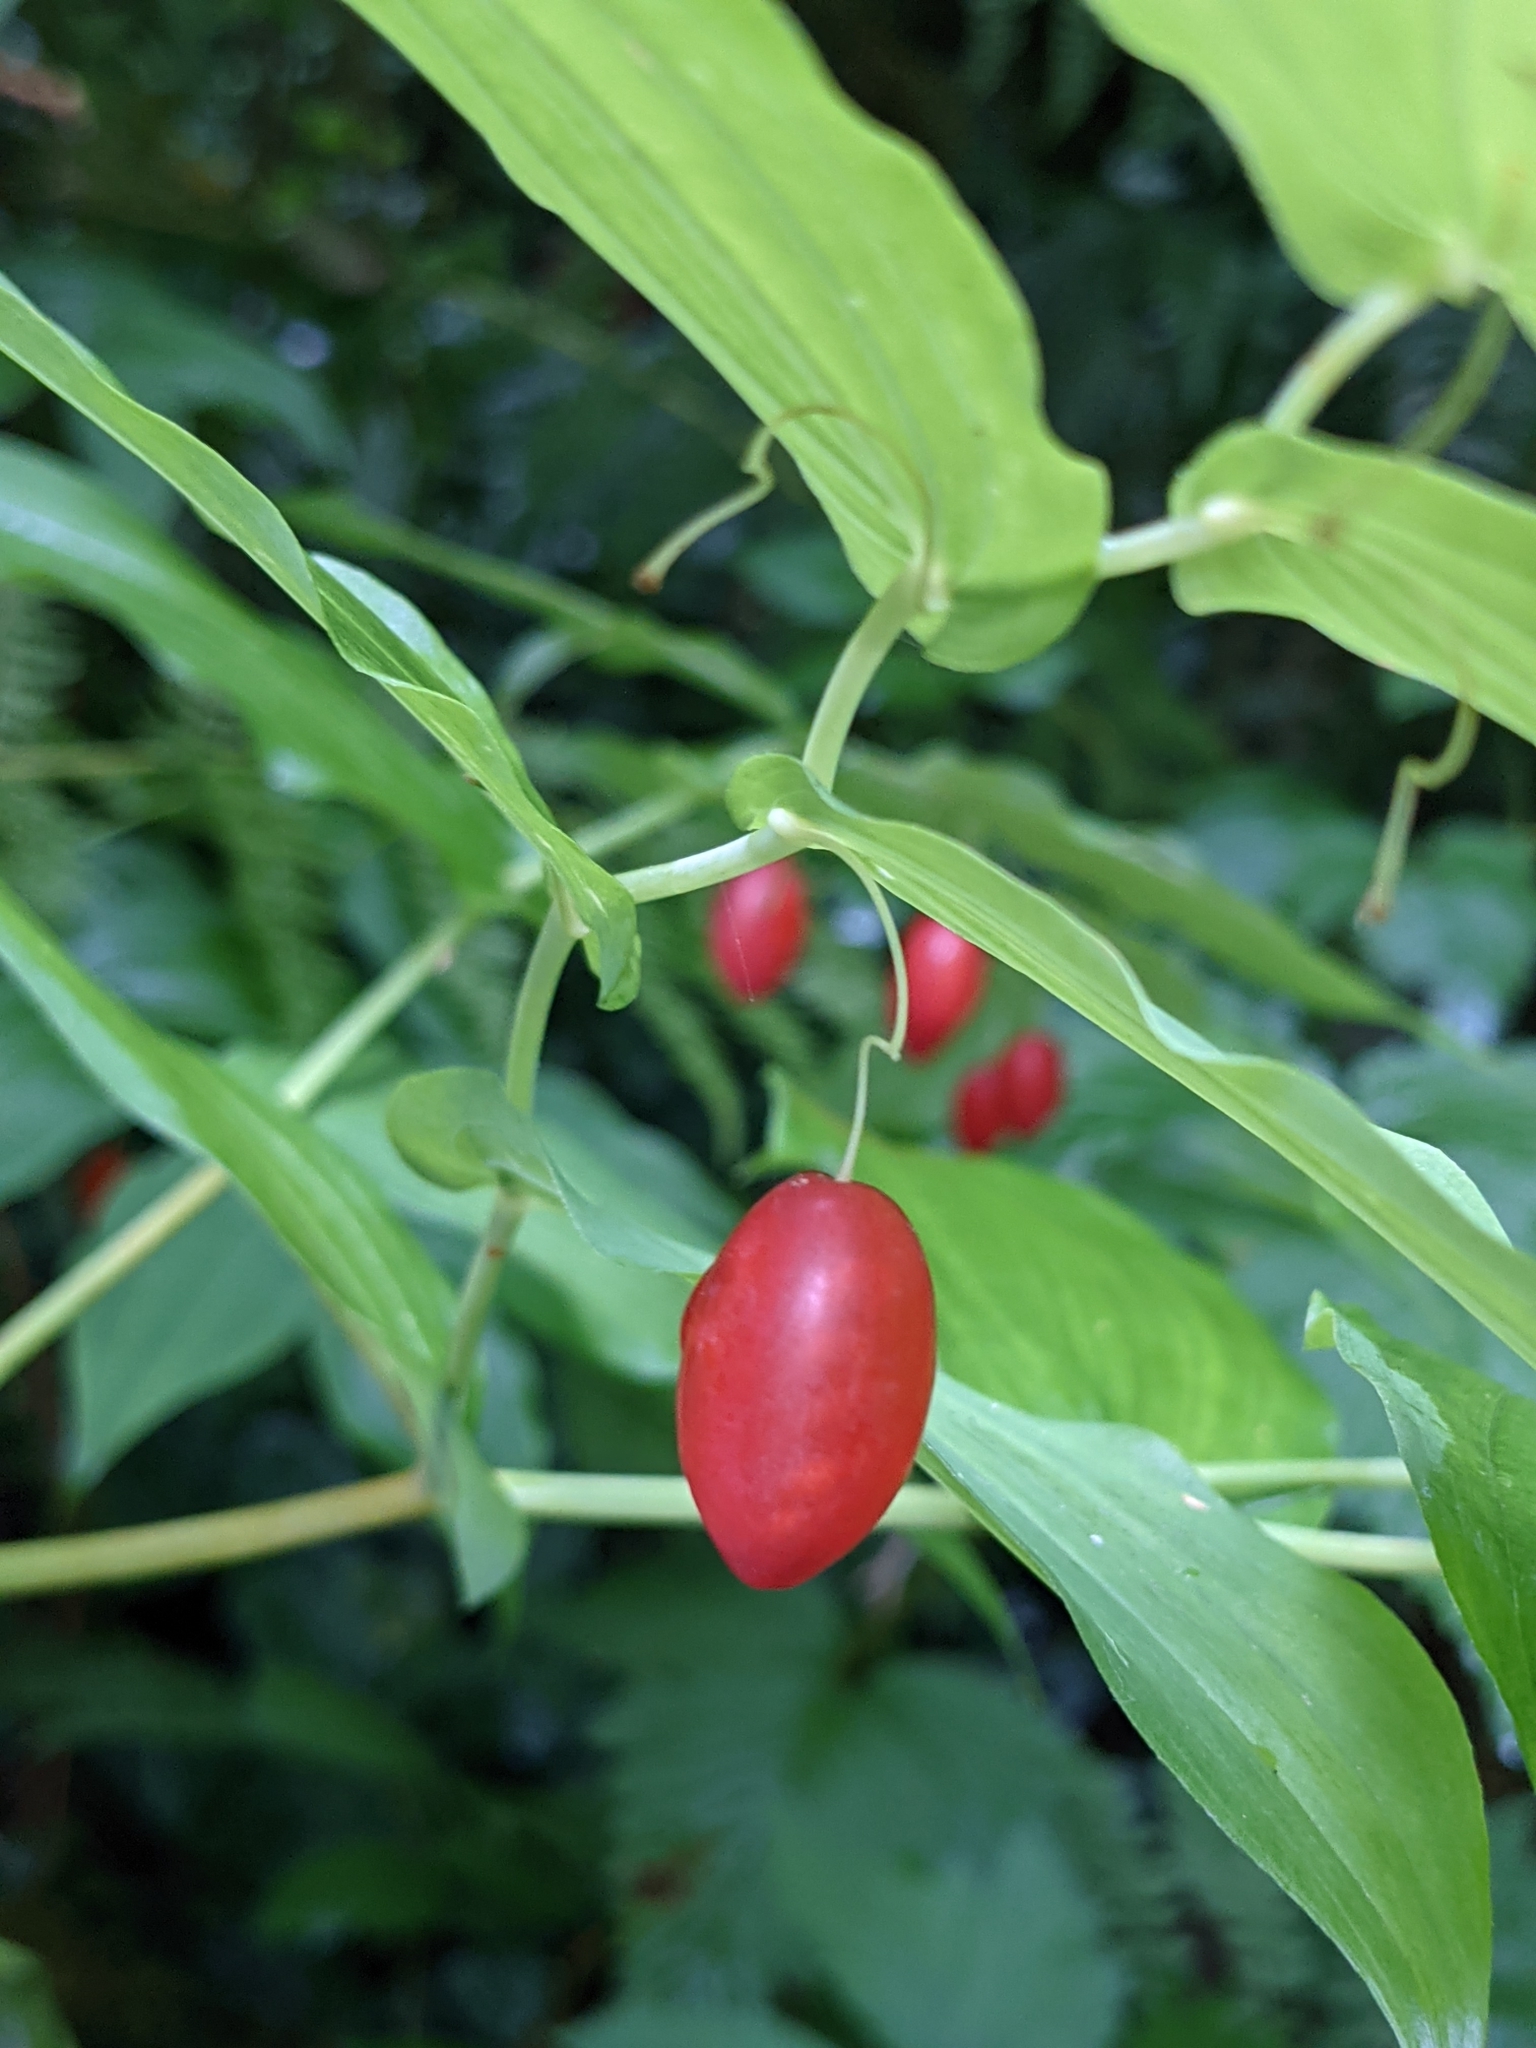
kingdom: Plantae
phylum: Tracheophyta
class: Liliopsida
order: Liliales
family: Liliaceae
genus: Streptopus
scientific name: Streptopus amplexifolius
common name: Clasp twisted stalk
